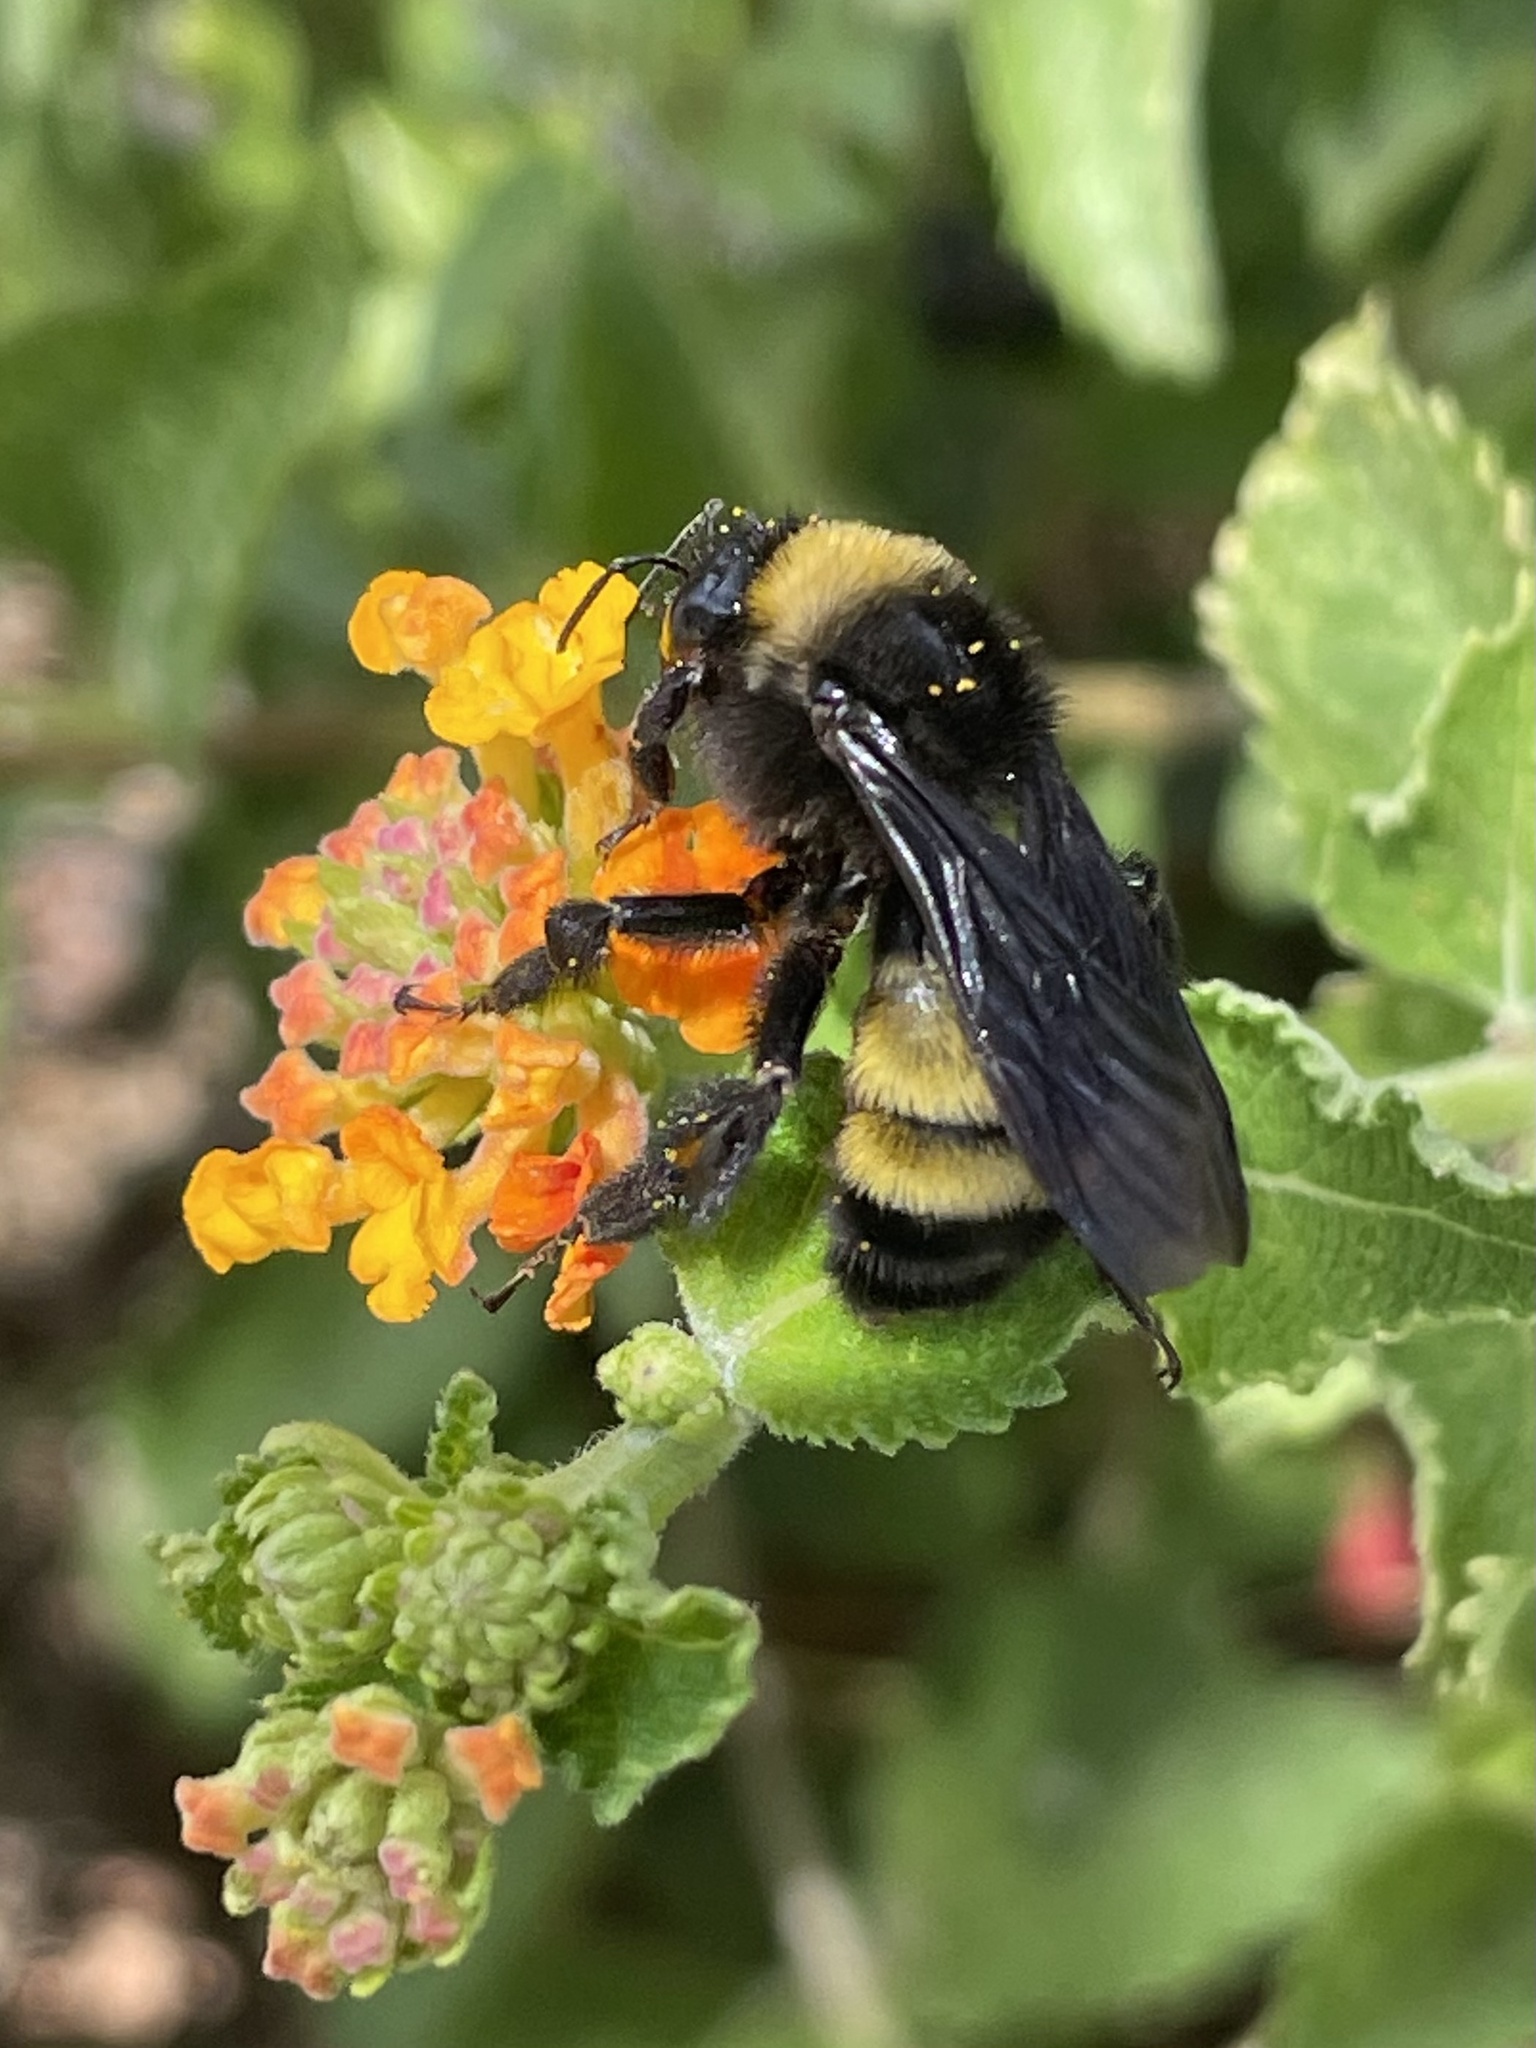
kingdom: Animalia
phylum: Arthropoda
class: Insecta
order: Hymenoptera
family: Apidae
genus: Bombus
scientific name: Bombus pensylvanicus
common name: Bumble bee
